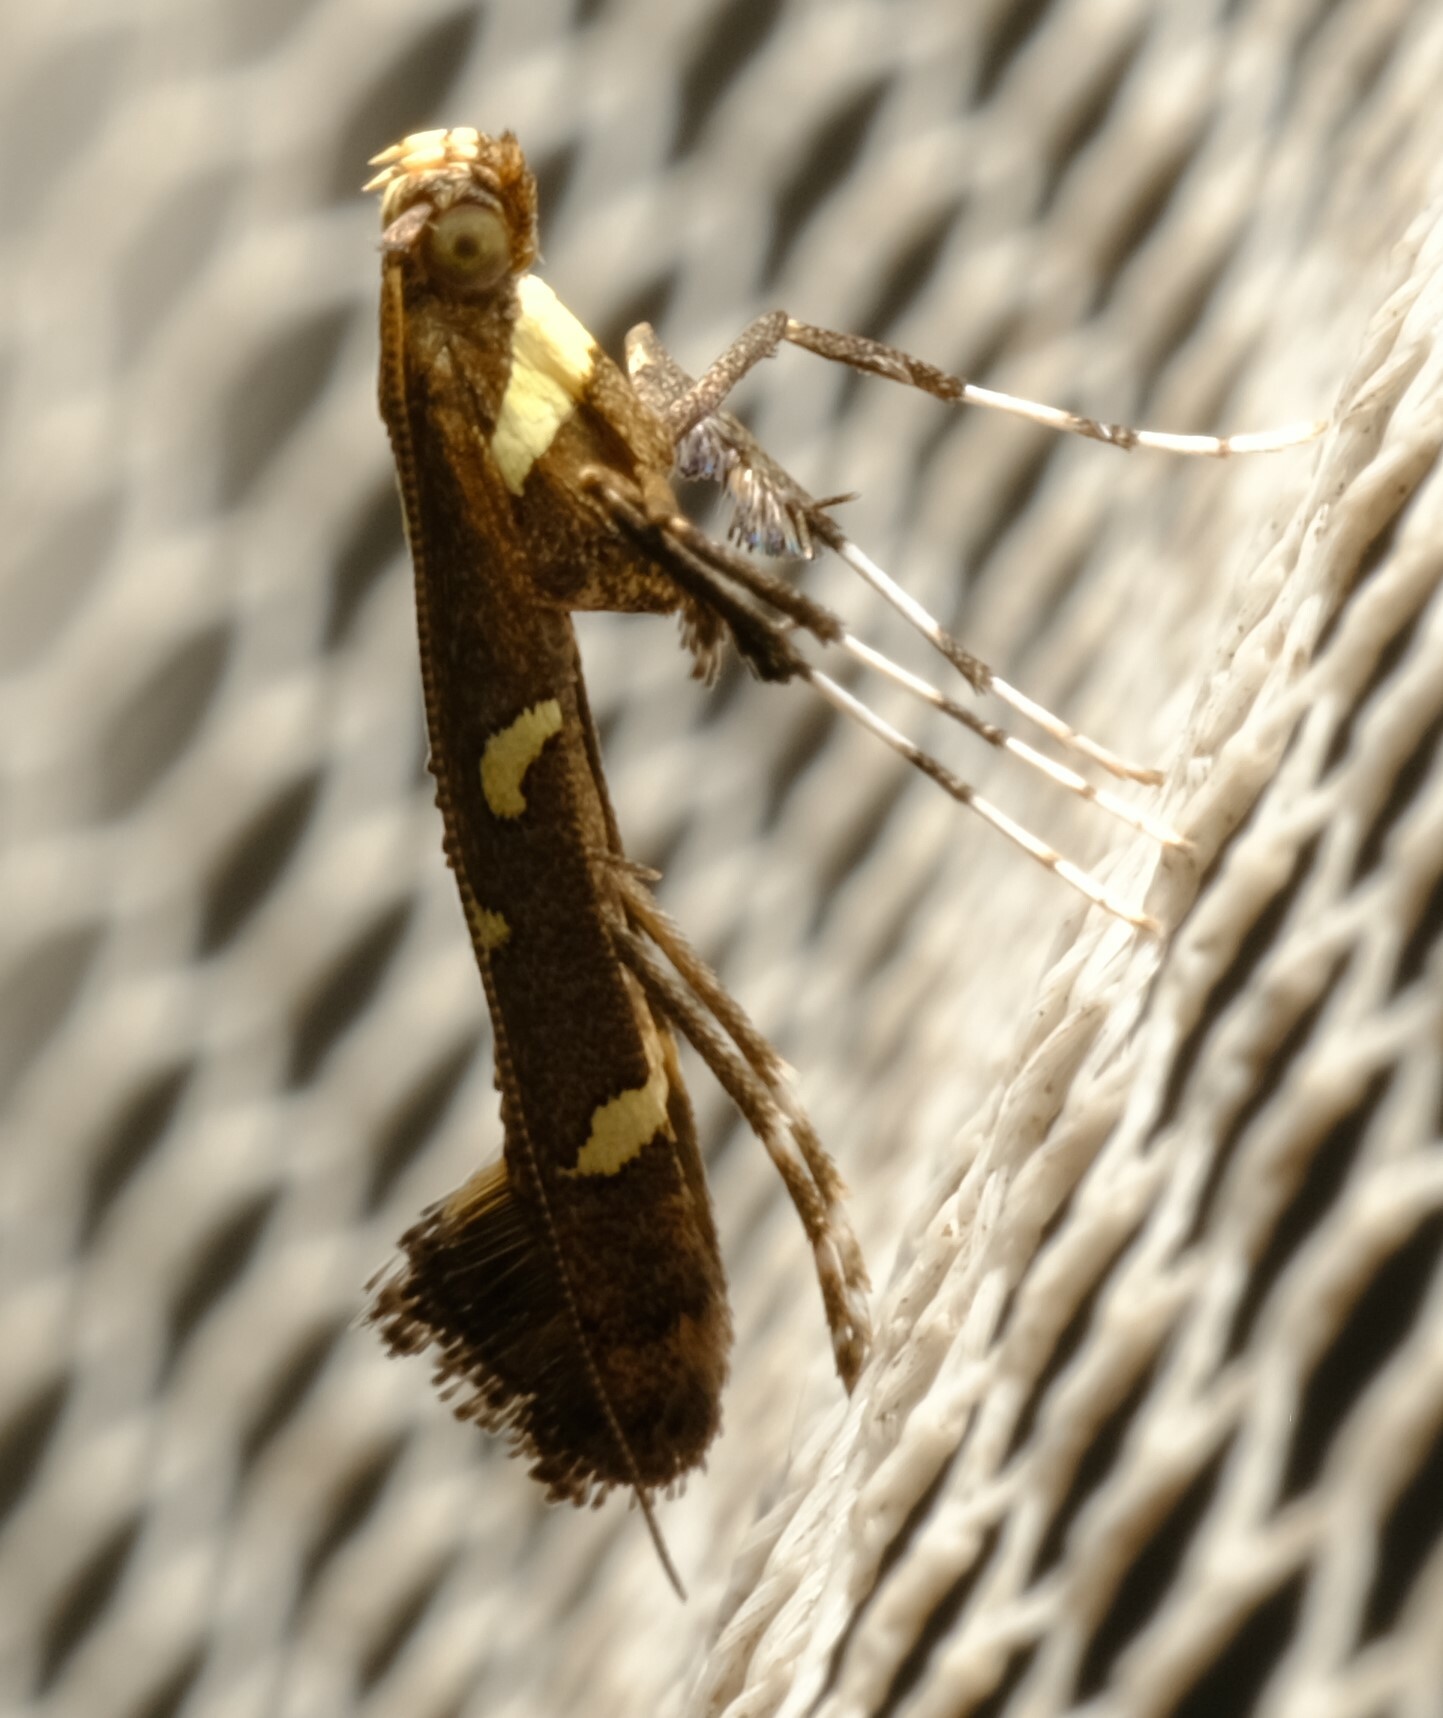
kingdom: Animalia
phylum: Arthropoda
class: Insecta
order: Lepidoptera
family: Gracillariidae
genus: Caloptilia
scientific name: Caloptilia adelosema
